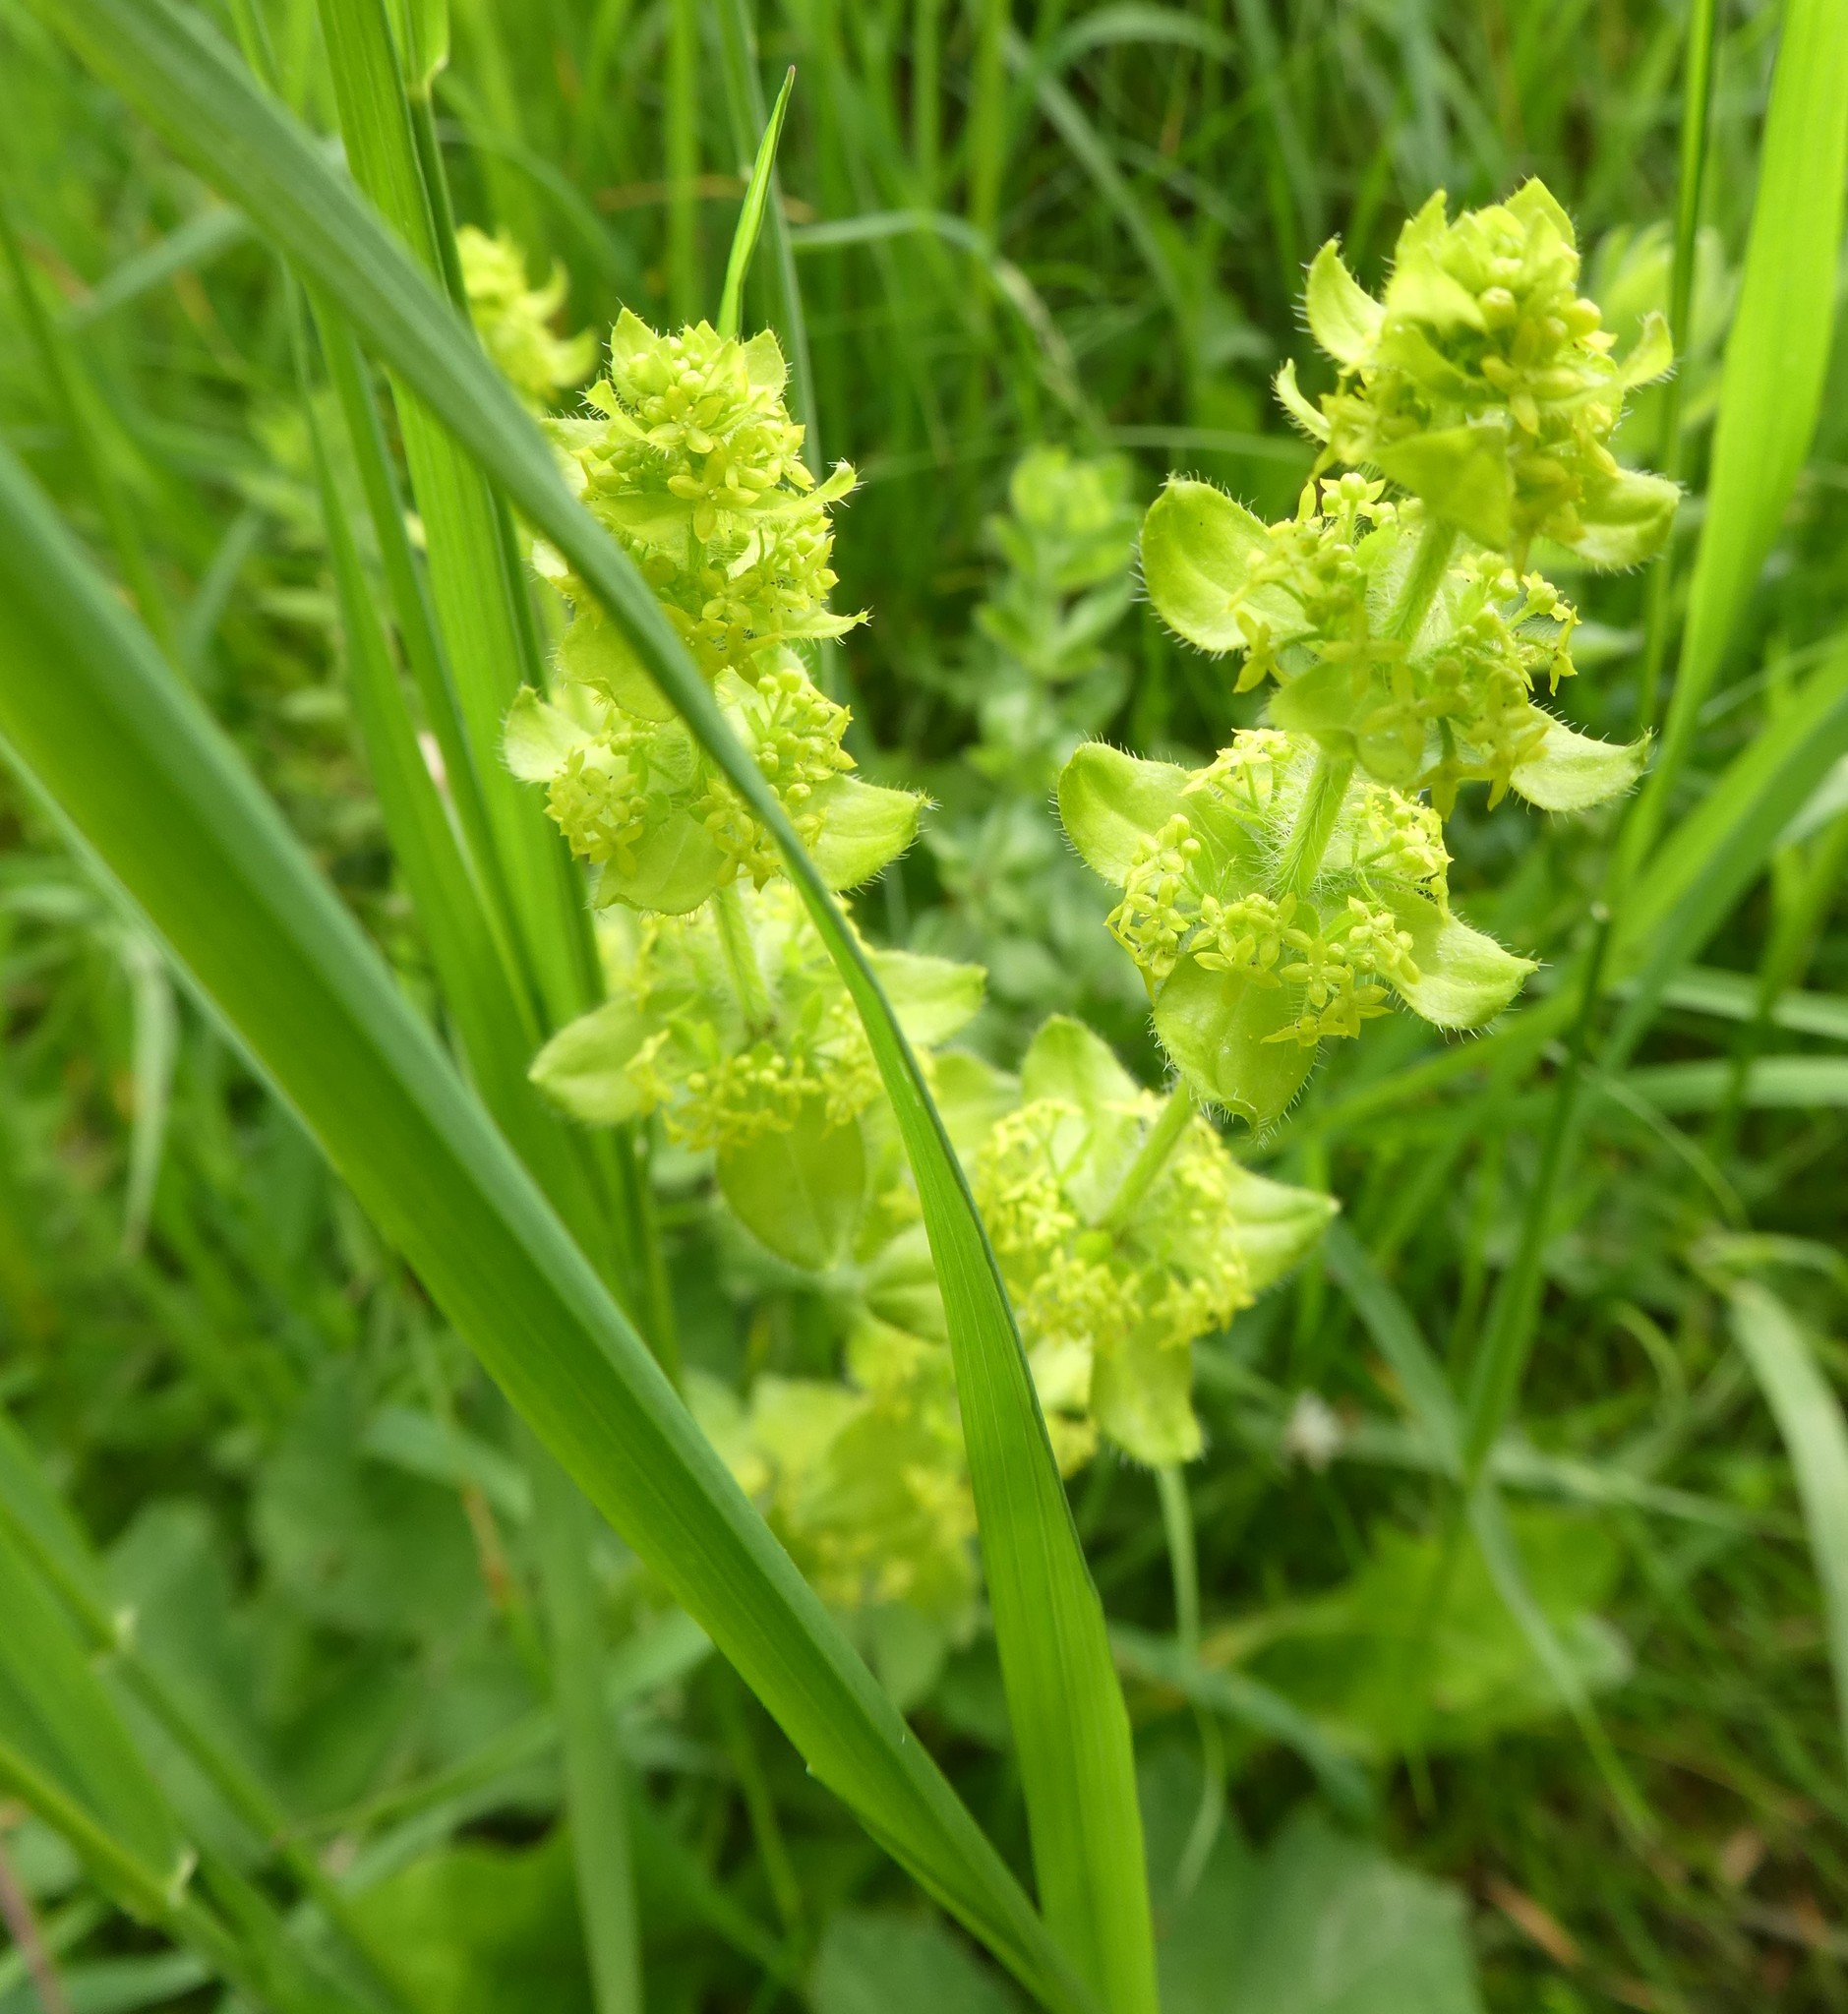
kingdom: Plantae
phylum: Tracheophyta
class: Magnoliopsida
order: Gentianales
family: Rubiaceae
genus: Cruciata
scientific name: Cruciata laevipes
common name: Crosswort
